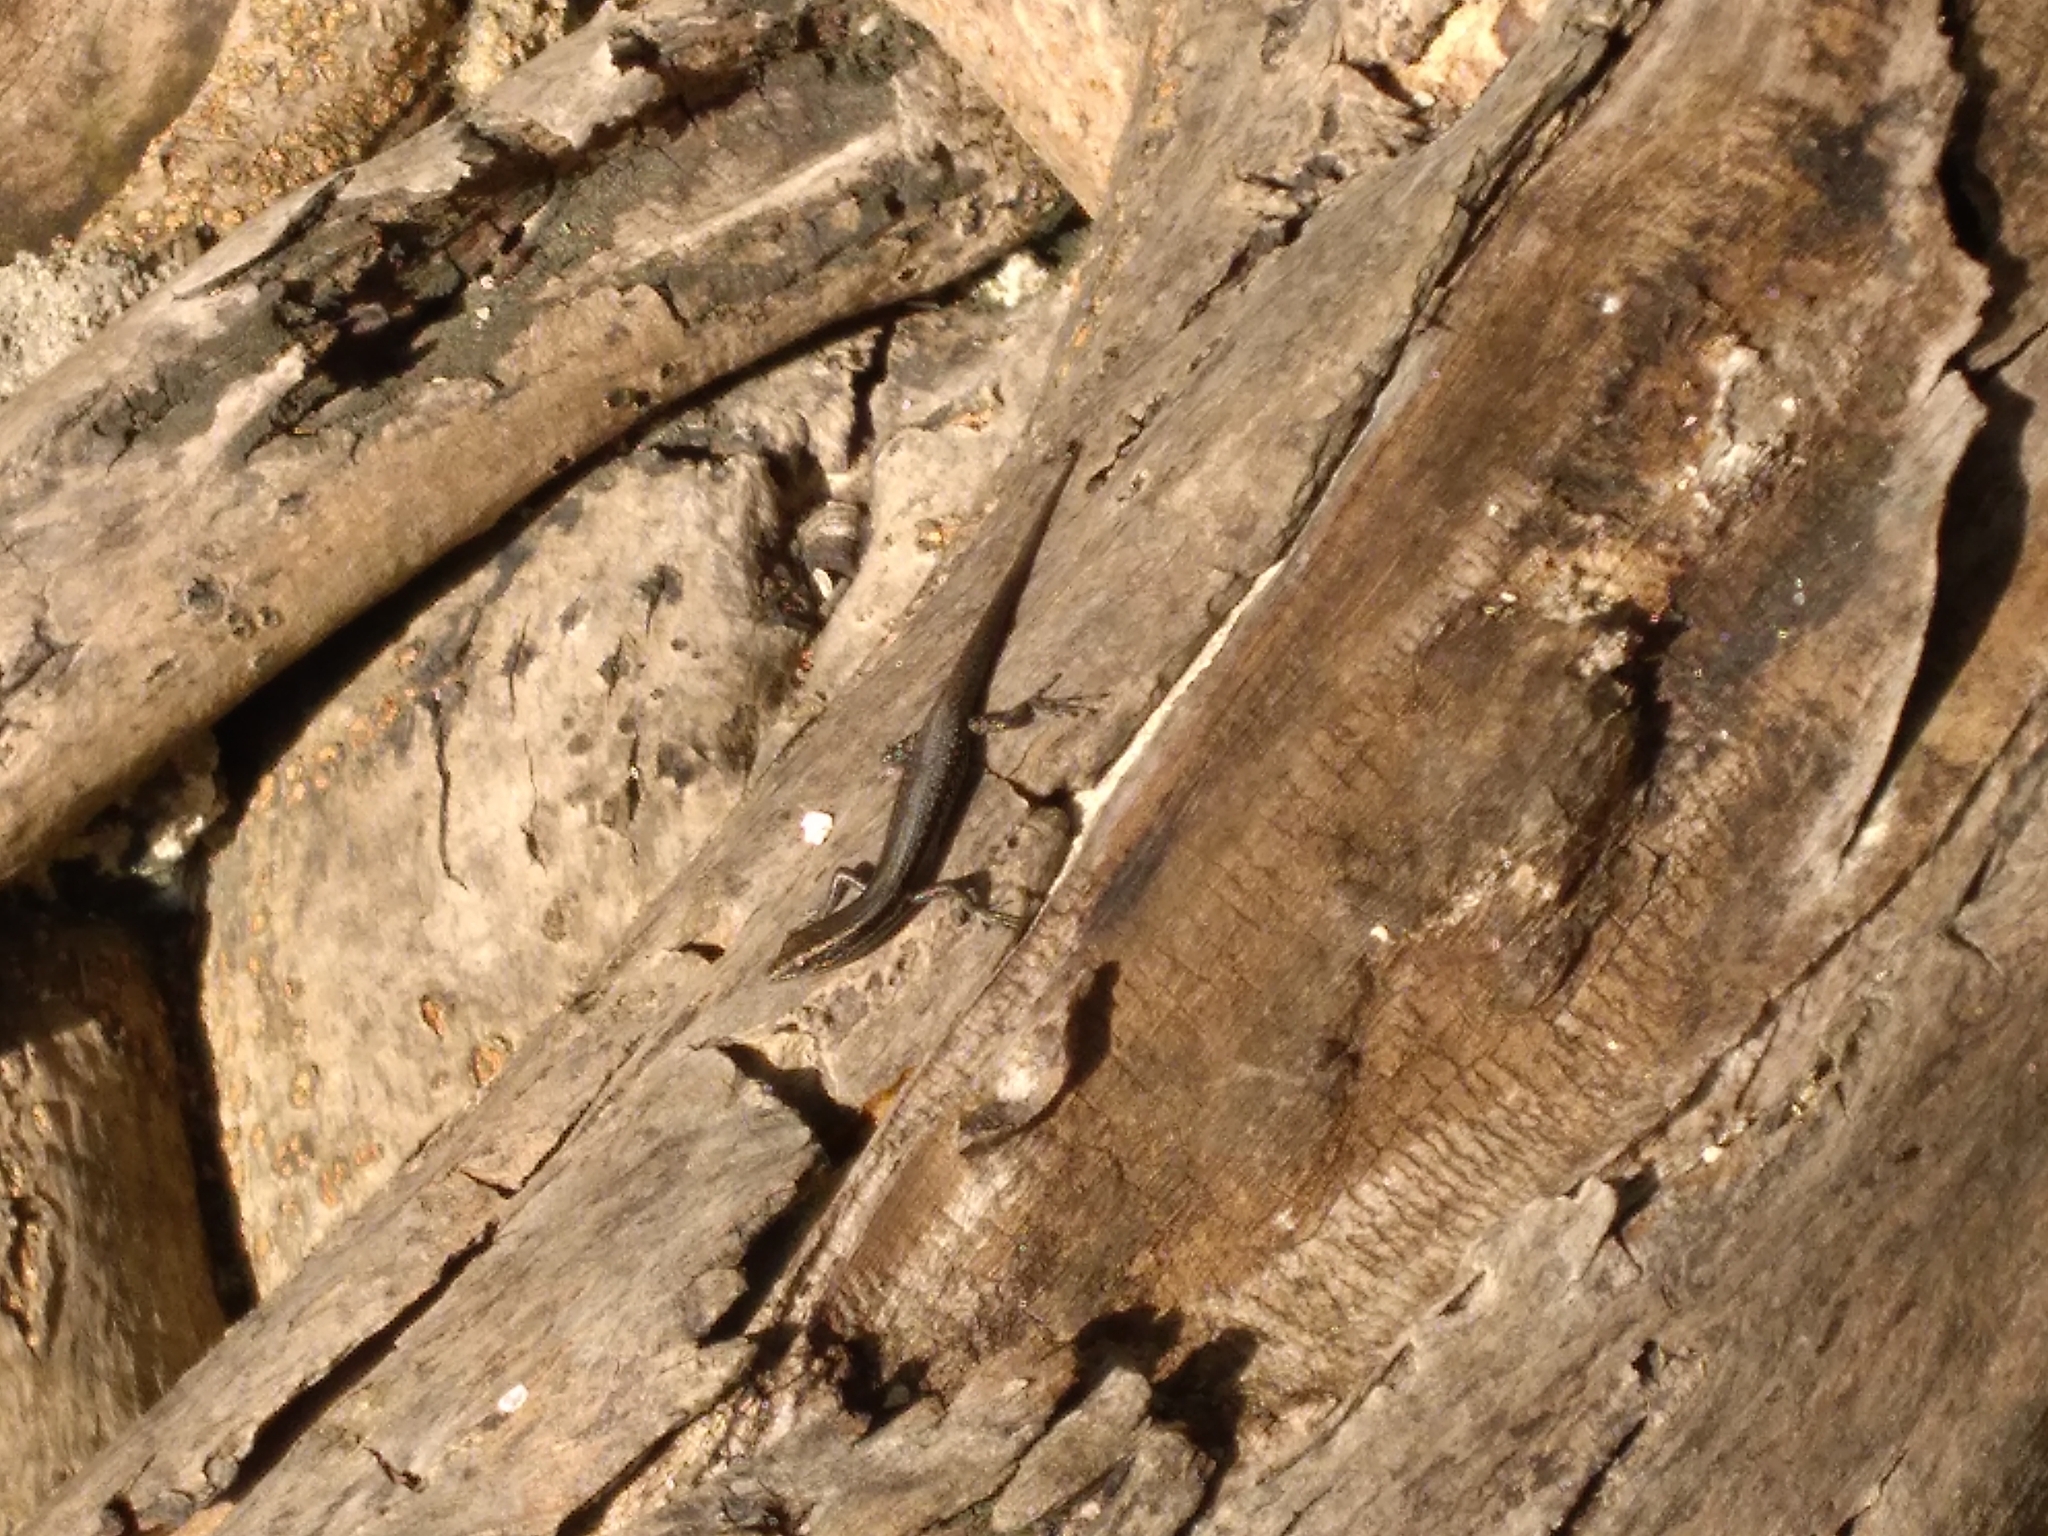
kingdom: Animalia
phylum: Chordata
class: Squamata
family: Scincidae
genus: Cryptoblepharus
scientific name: Cryptoblepharus eximius
